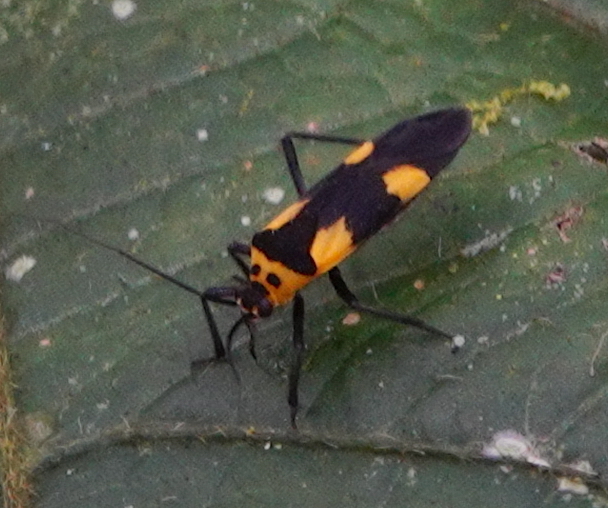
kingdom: Animalia
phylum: Arthropoda
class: Insecta
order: Hemiptera
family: Miridae
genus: Prepops
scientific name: Prepops caliensis
